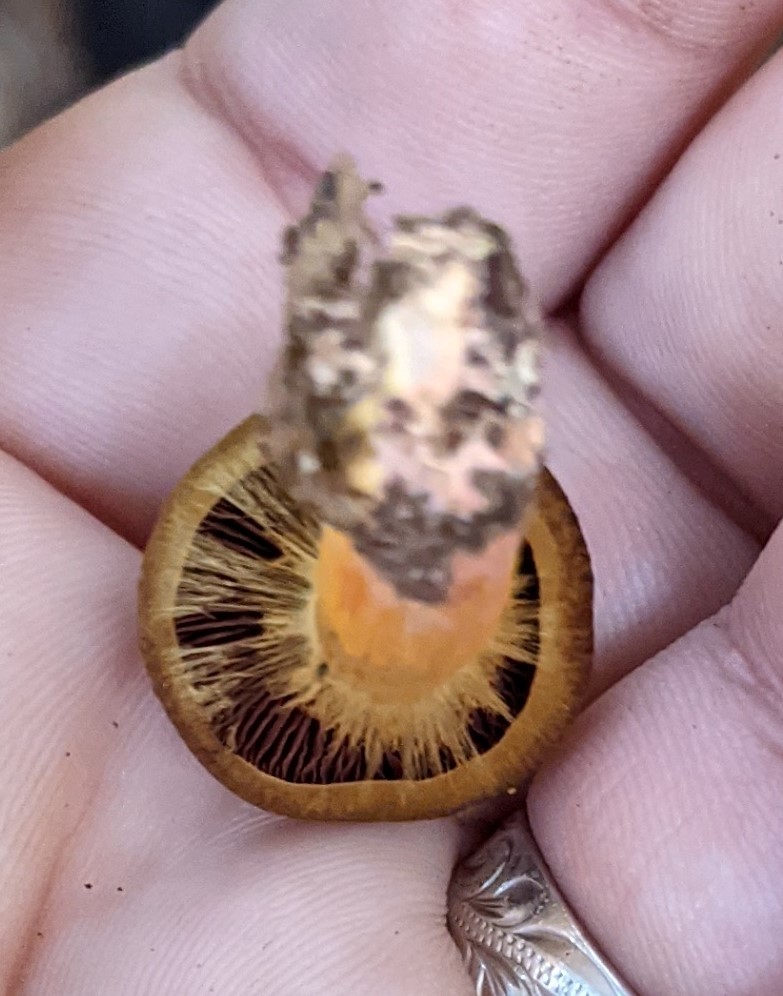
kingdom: Fungi
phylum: Basidiomycota
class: Agaricomycetes
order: Agaricales
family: Cortinariaceae
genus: Cortinarius
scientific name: Cortinarius semisanguineus
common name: Surprise webcap
